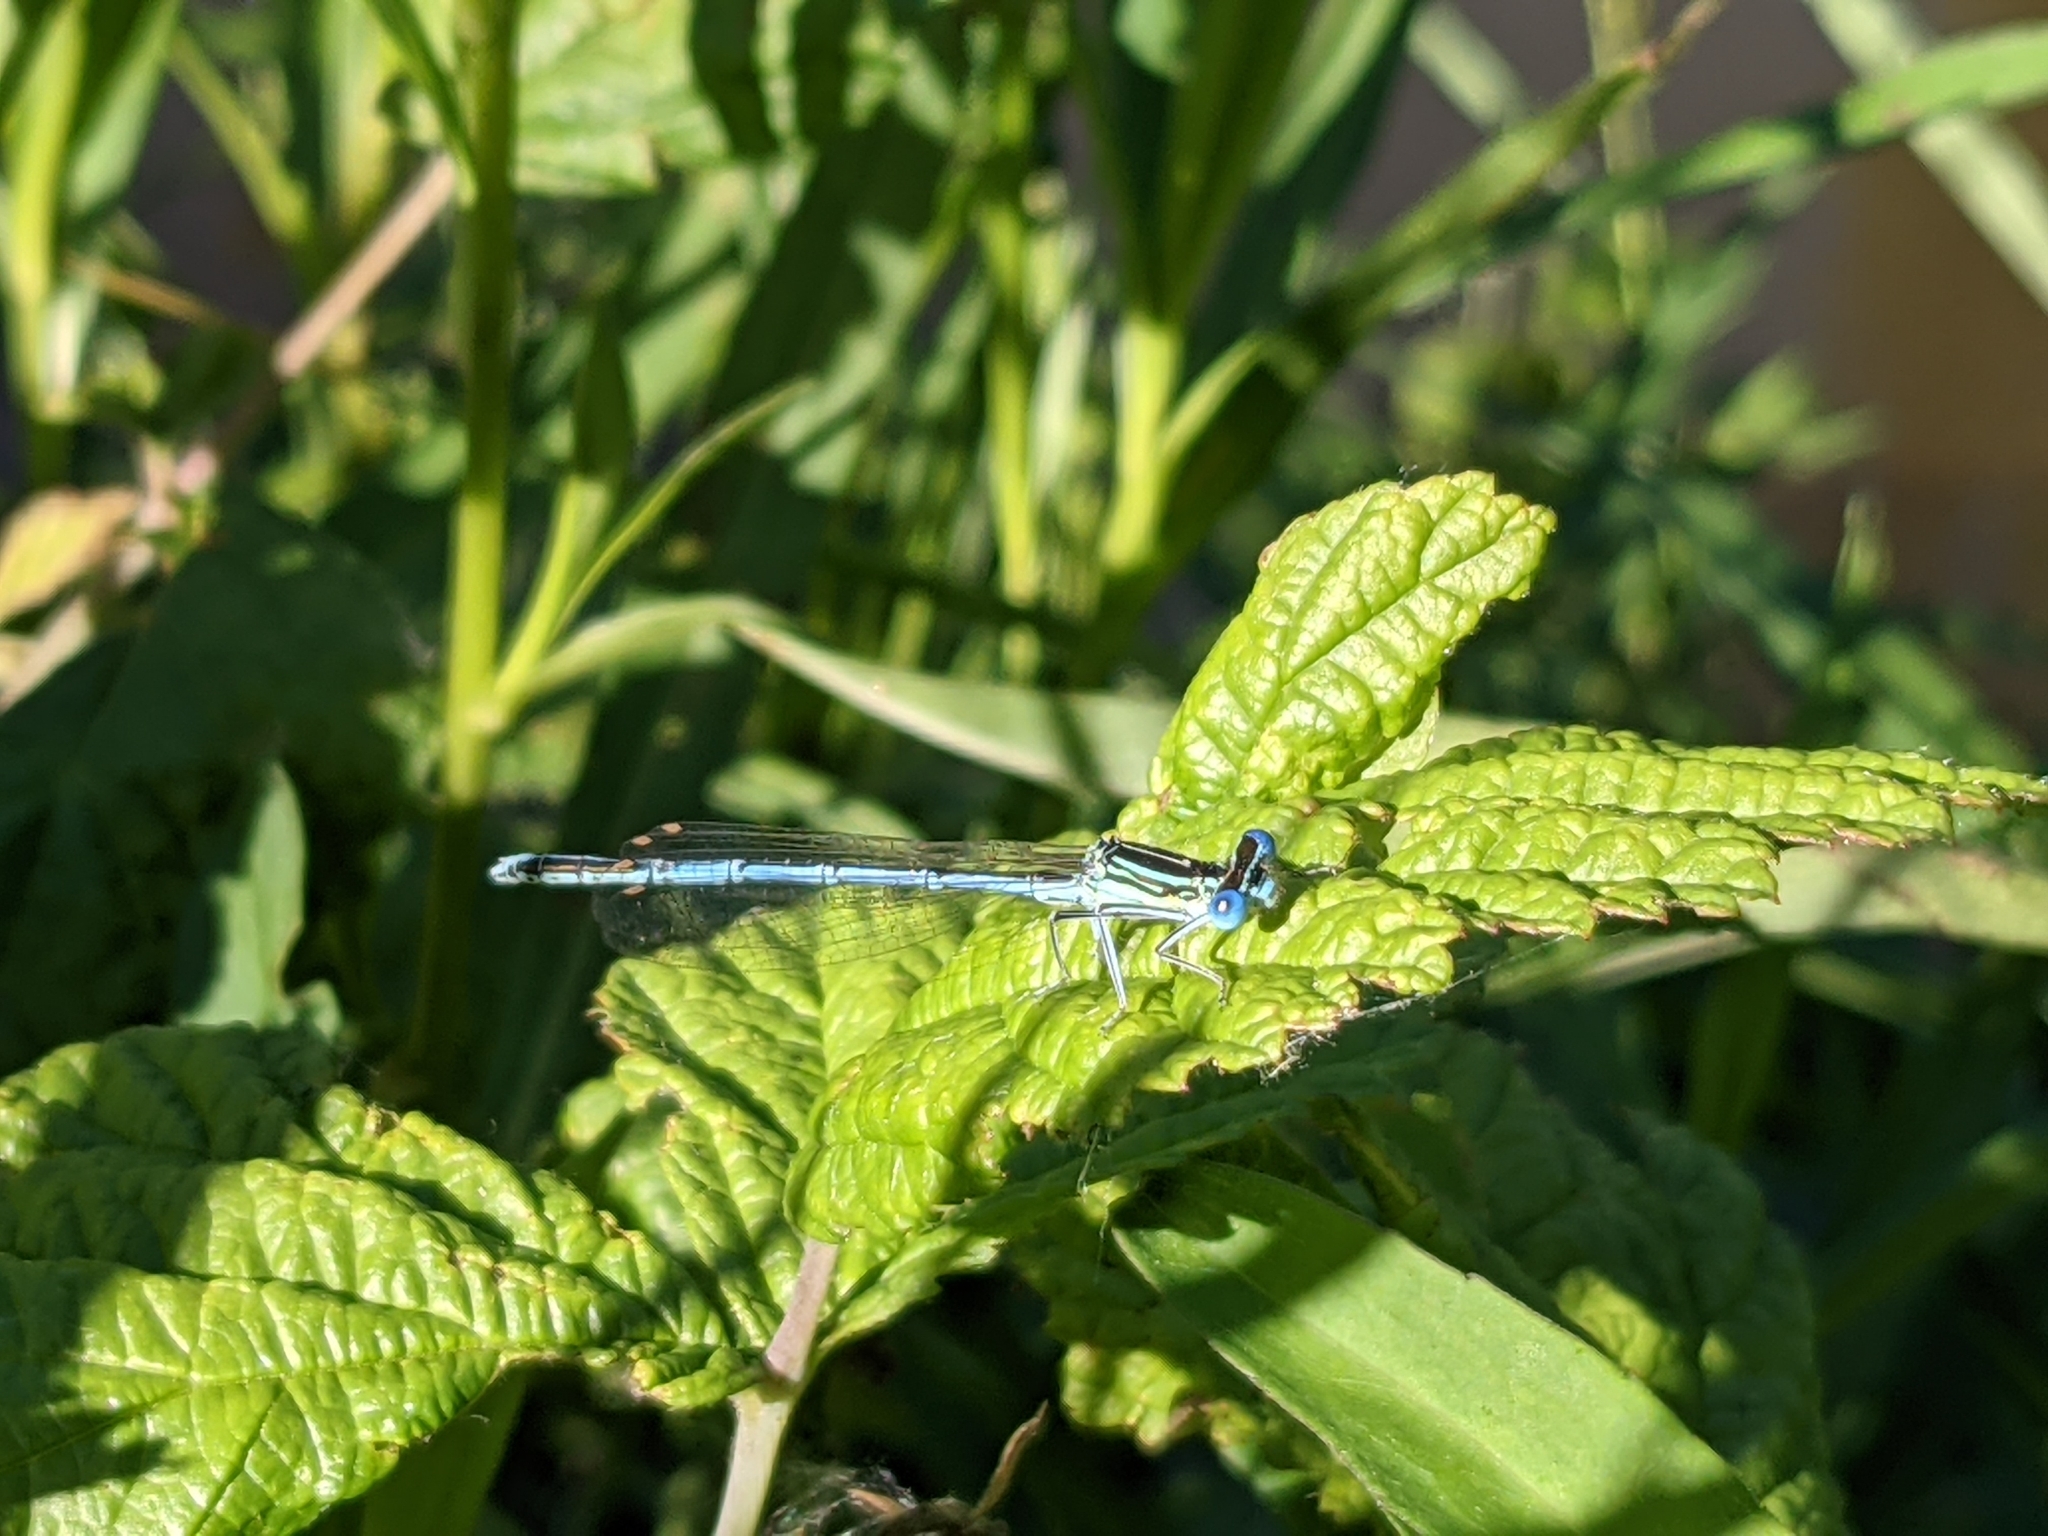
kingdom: Animalia
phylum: Arthropoda
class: Insecta
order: Odonata
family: Platycnemididae
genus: Platycnemis
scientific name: Platycnemis pennipes
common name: White-legged damselfly
